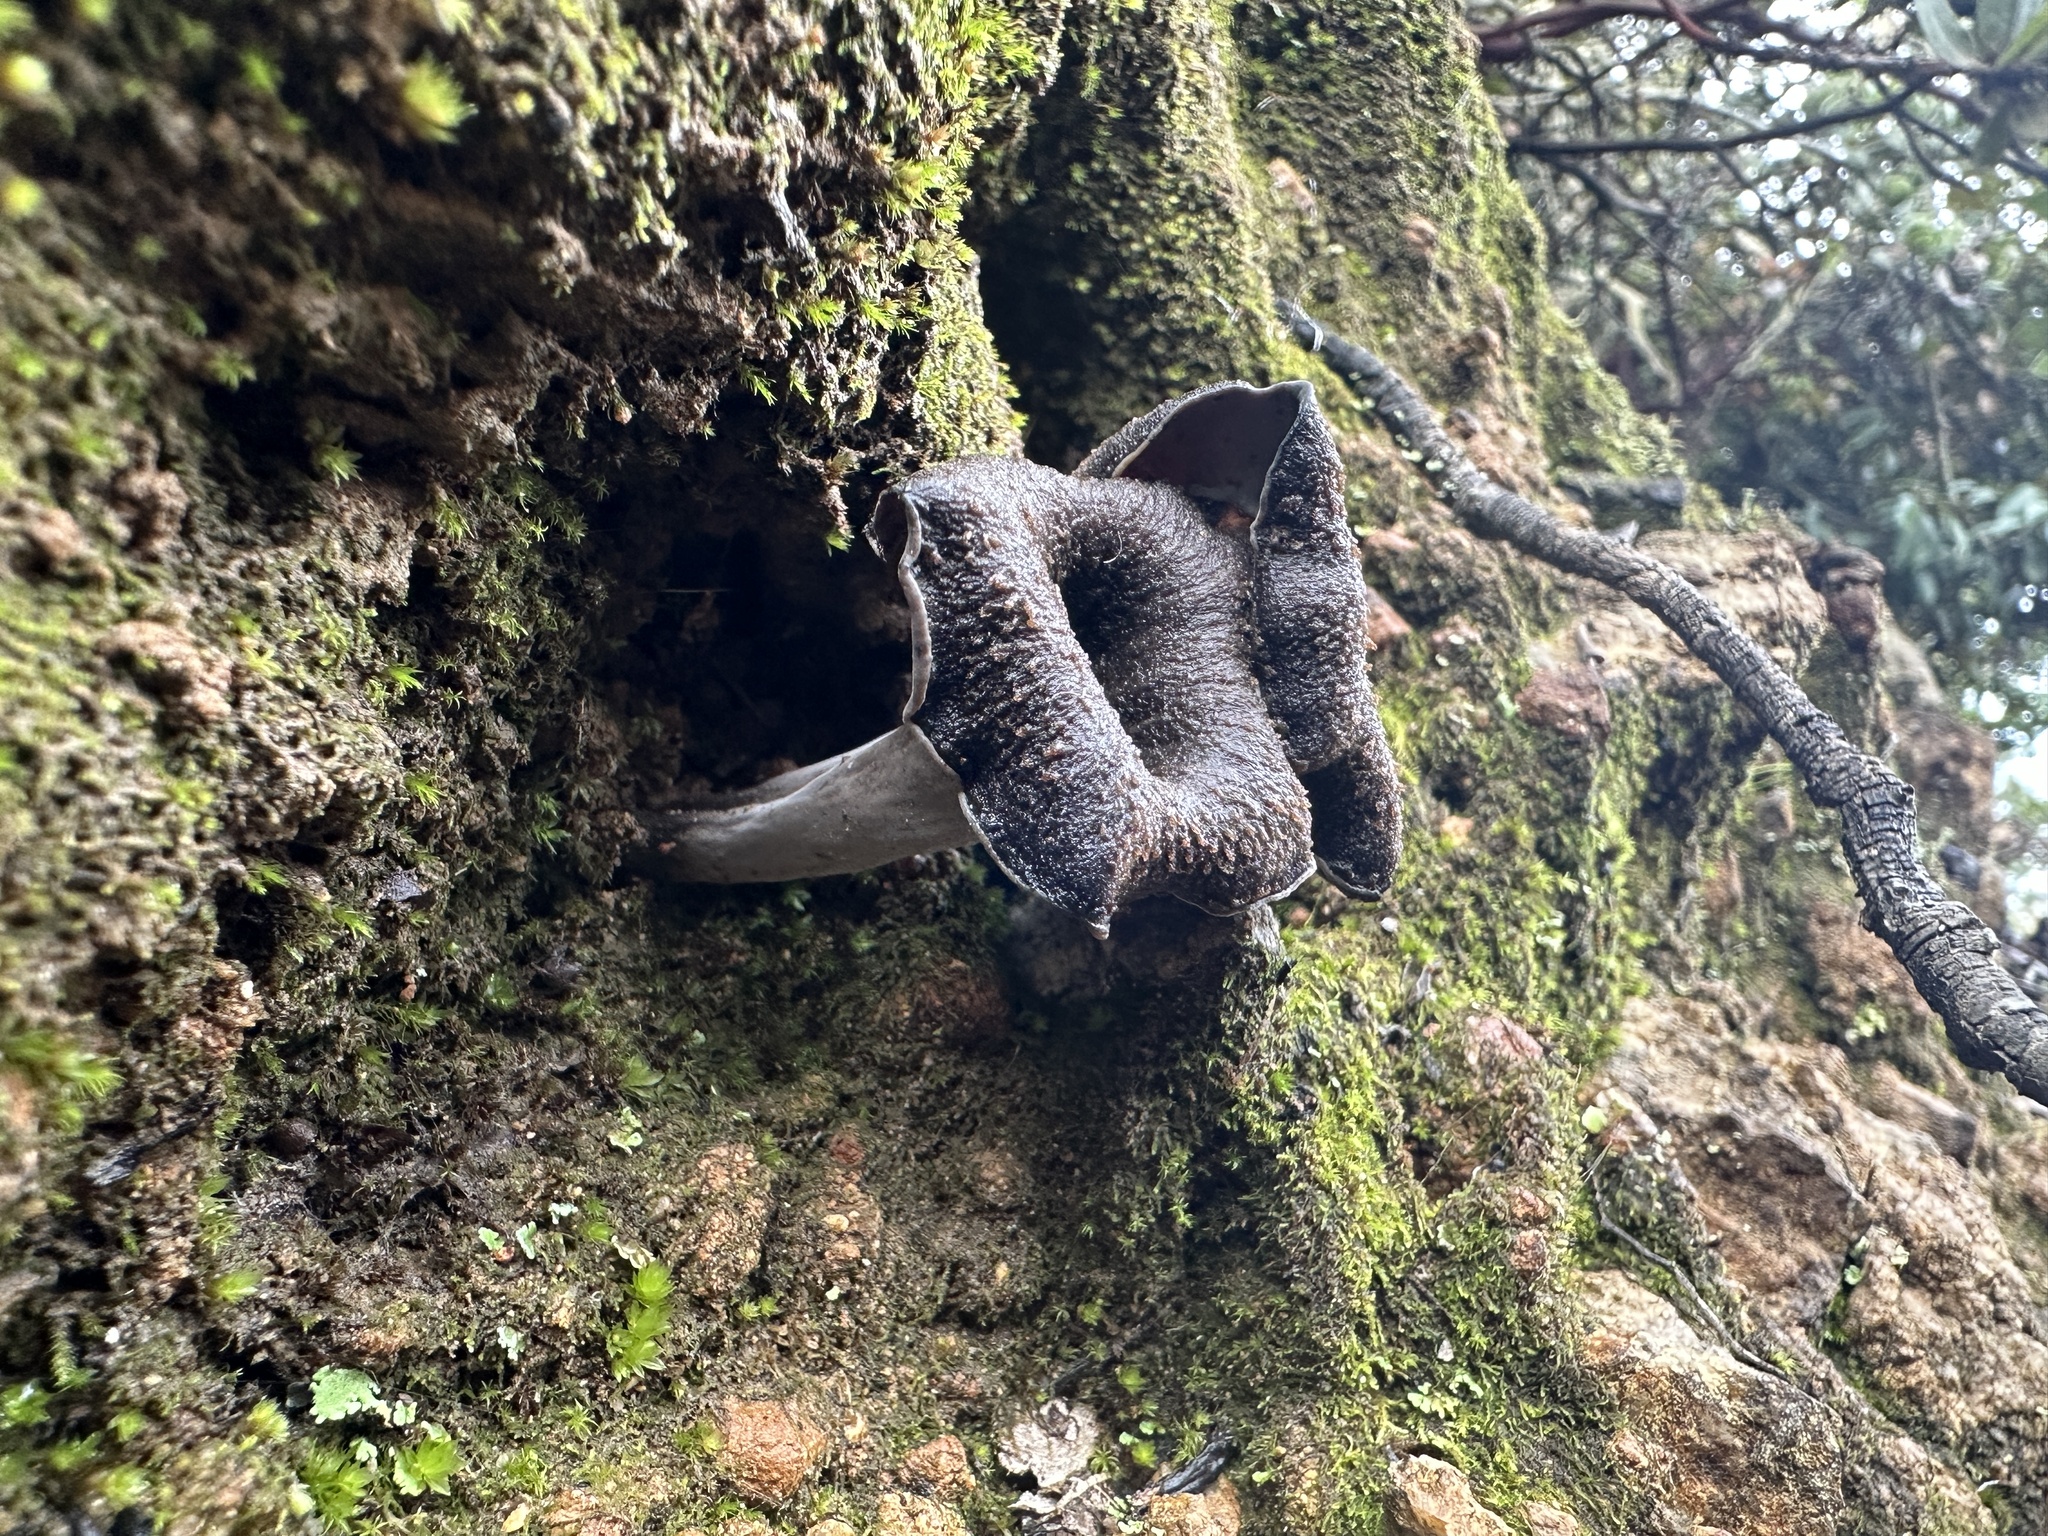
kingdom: Fungi
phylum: Basidiomycota
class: Agaricomycetes
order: Cantharellales
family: Hydnaceae
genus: Craterellus
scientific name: Craterellus calicornucopioides
